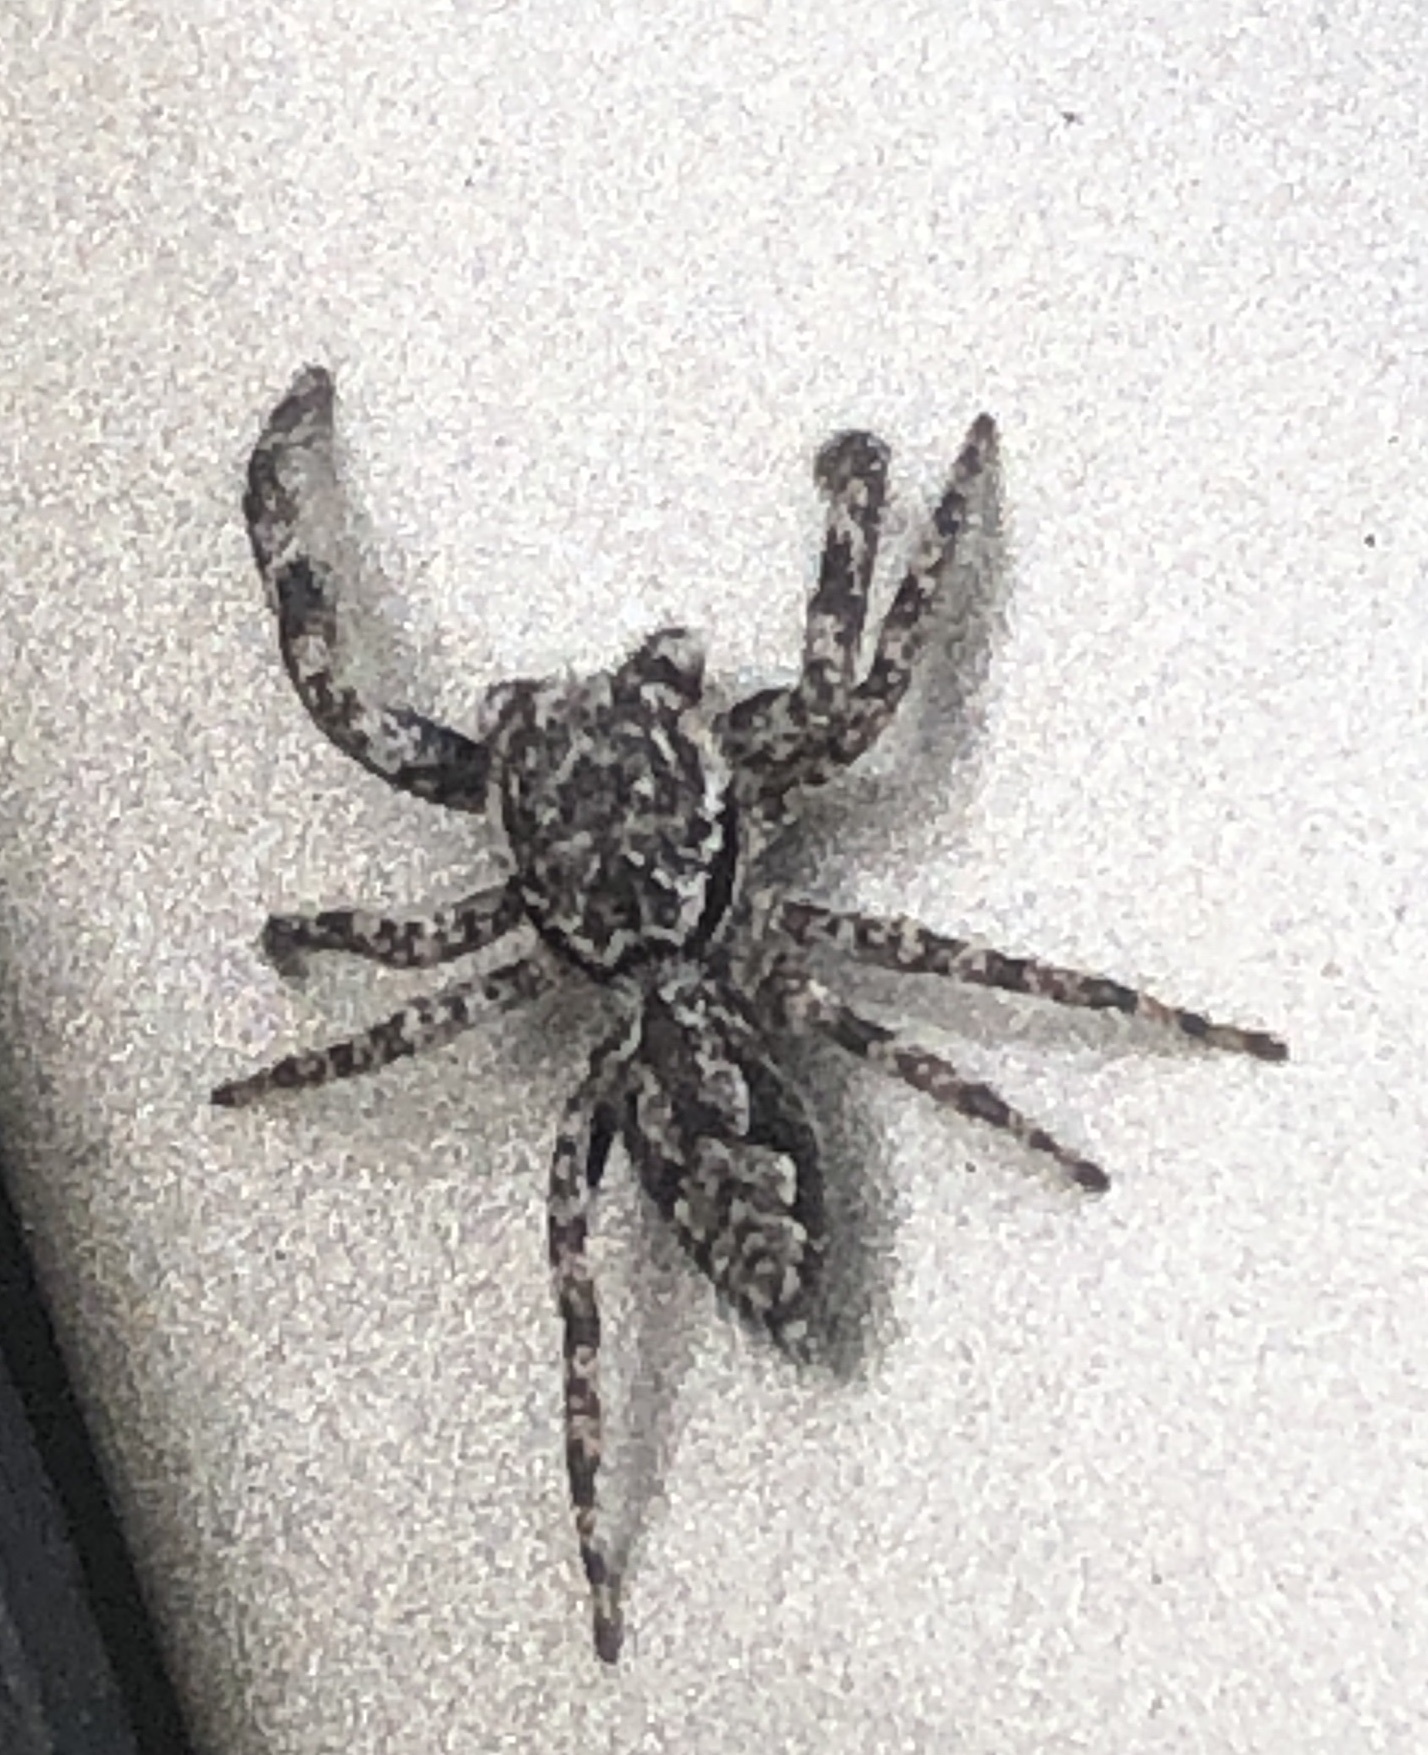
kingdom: Animalia
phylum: Arthropoda
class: Arachnida
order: Araneae
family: Salticidae
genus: Platycryptus
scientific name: Platycryptus undatus
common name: Tan jumping spider
